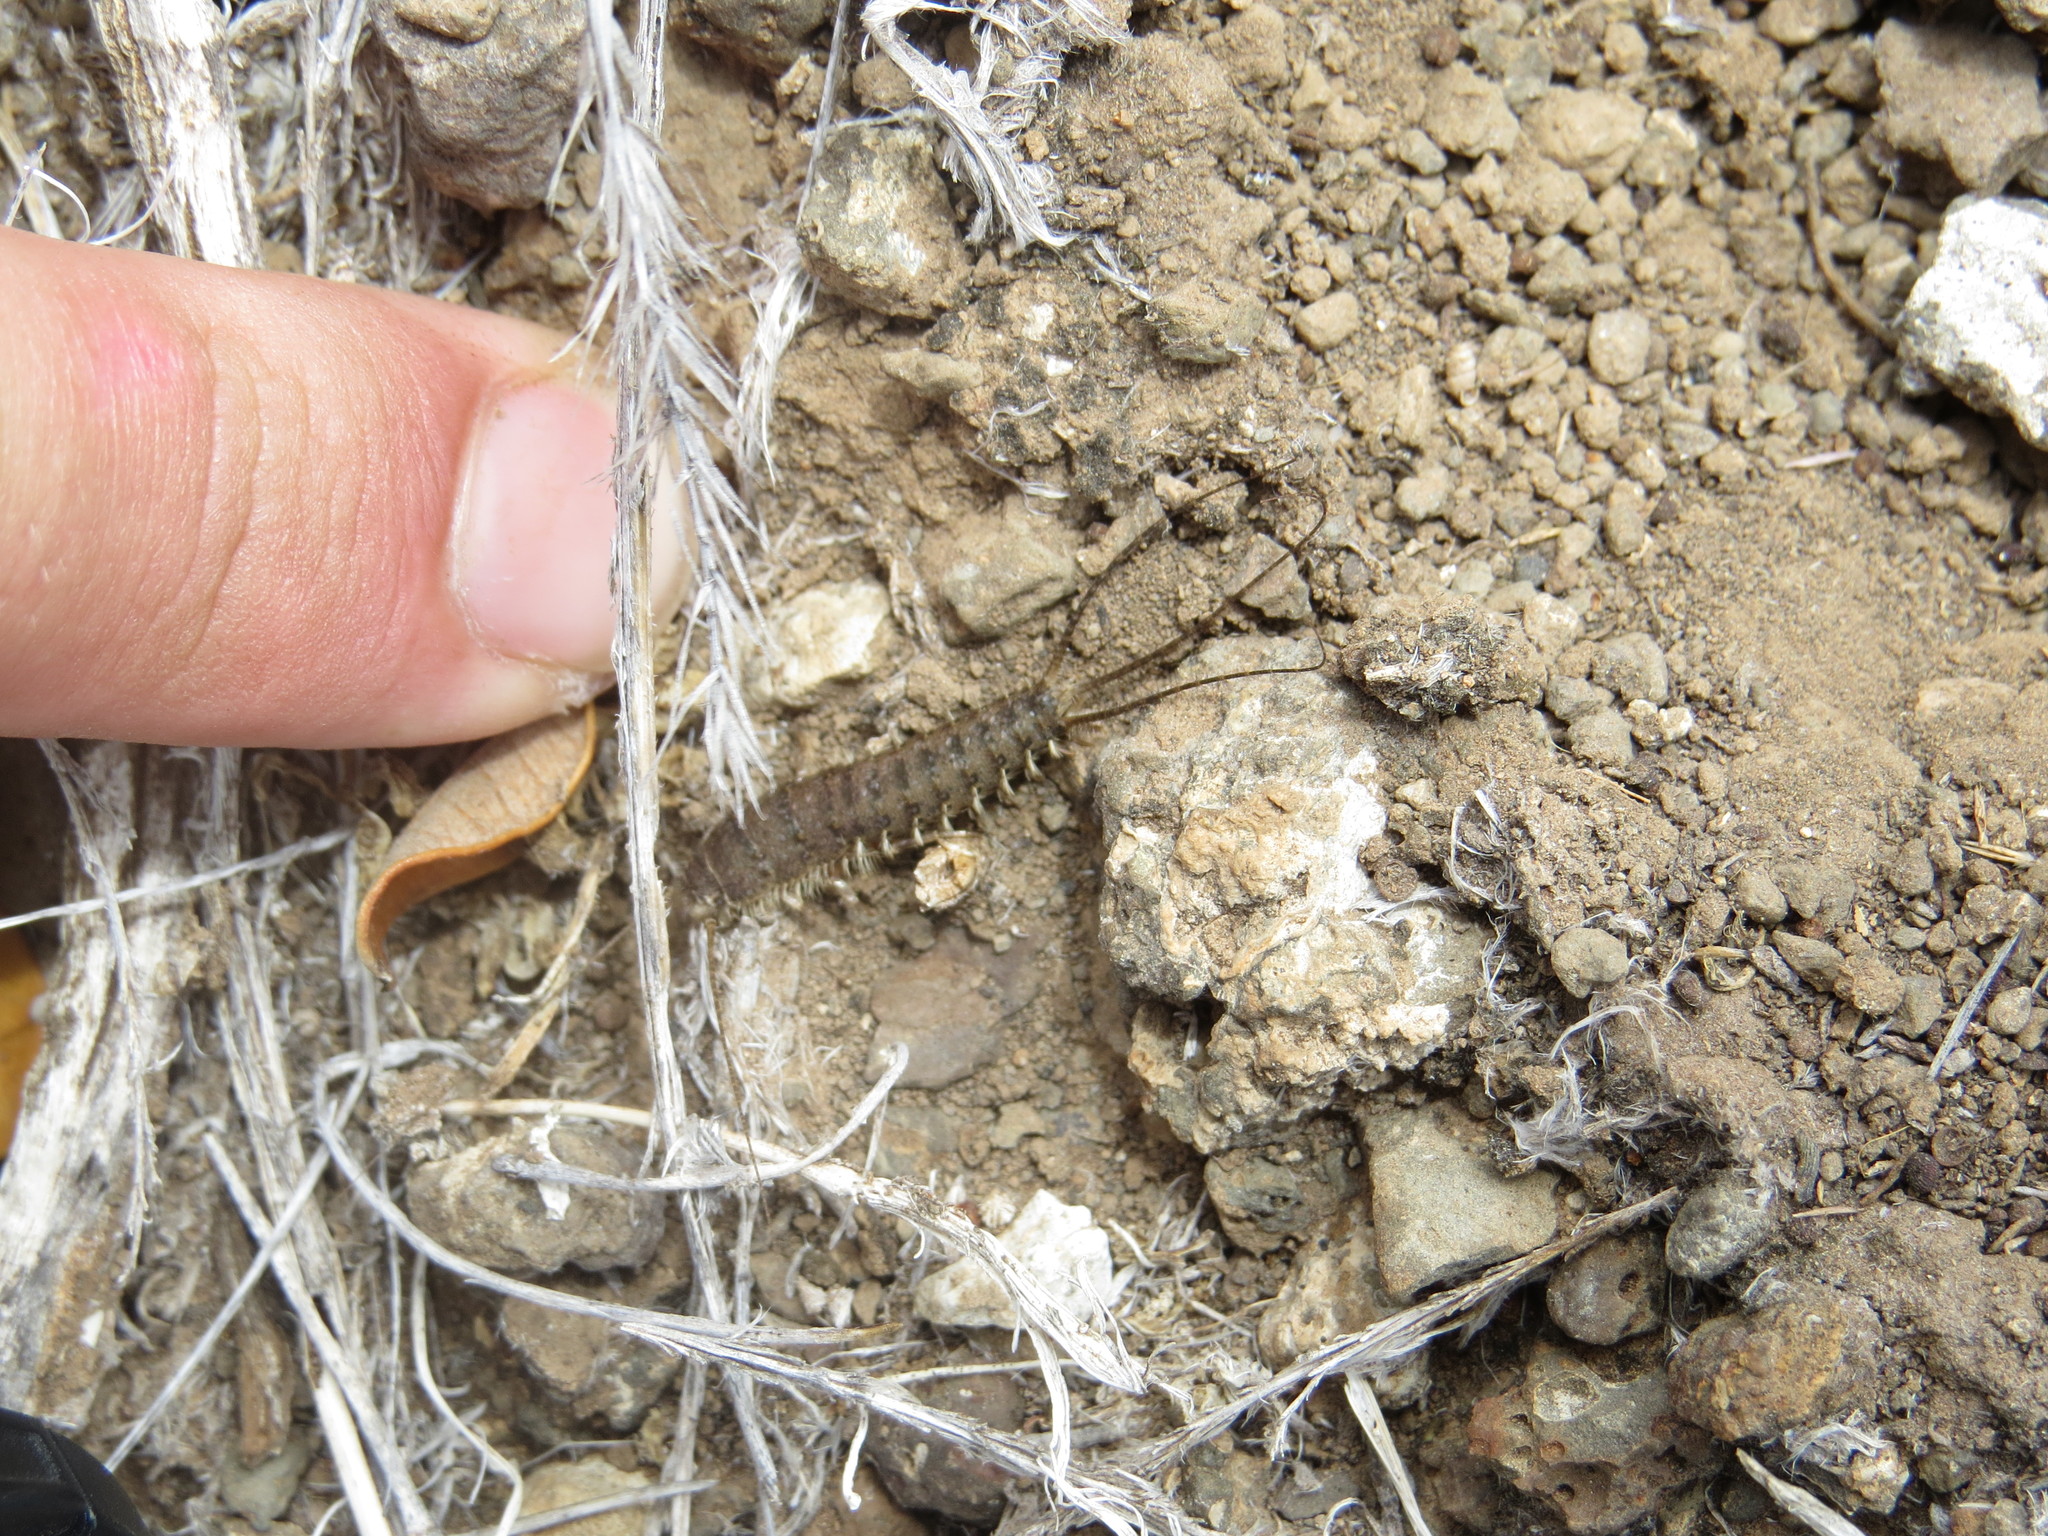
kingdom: Animalia
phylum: Arthropoda
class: Insecta
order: Zygentoma
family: Lepismatidae
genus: Stylifera
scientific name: Stylifera
